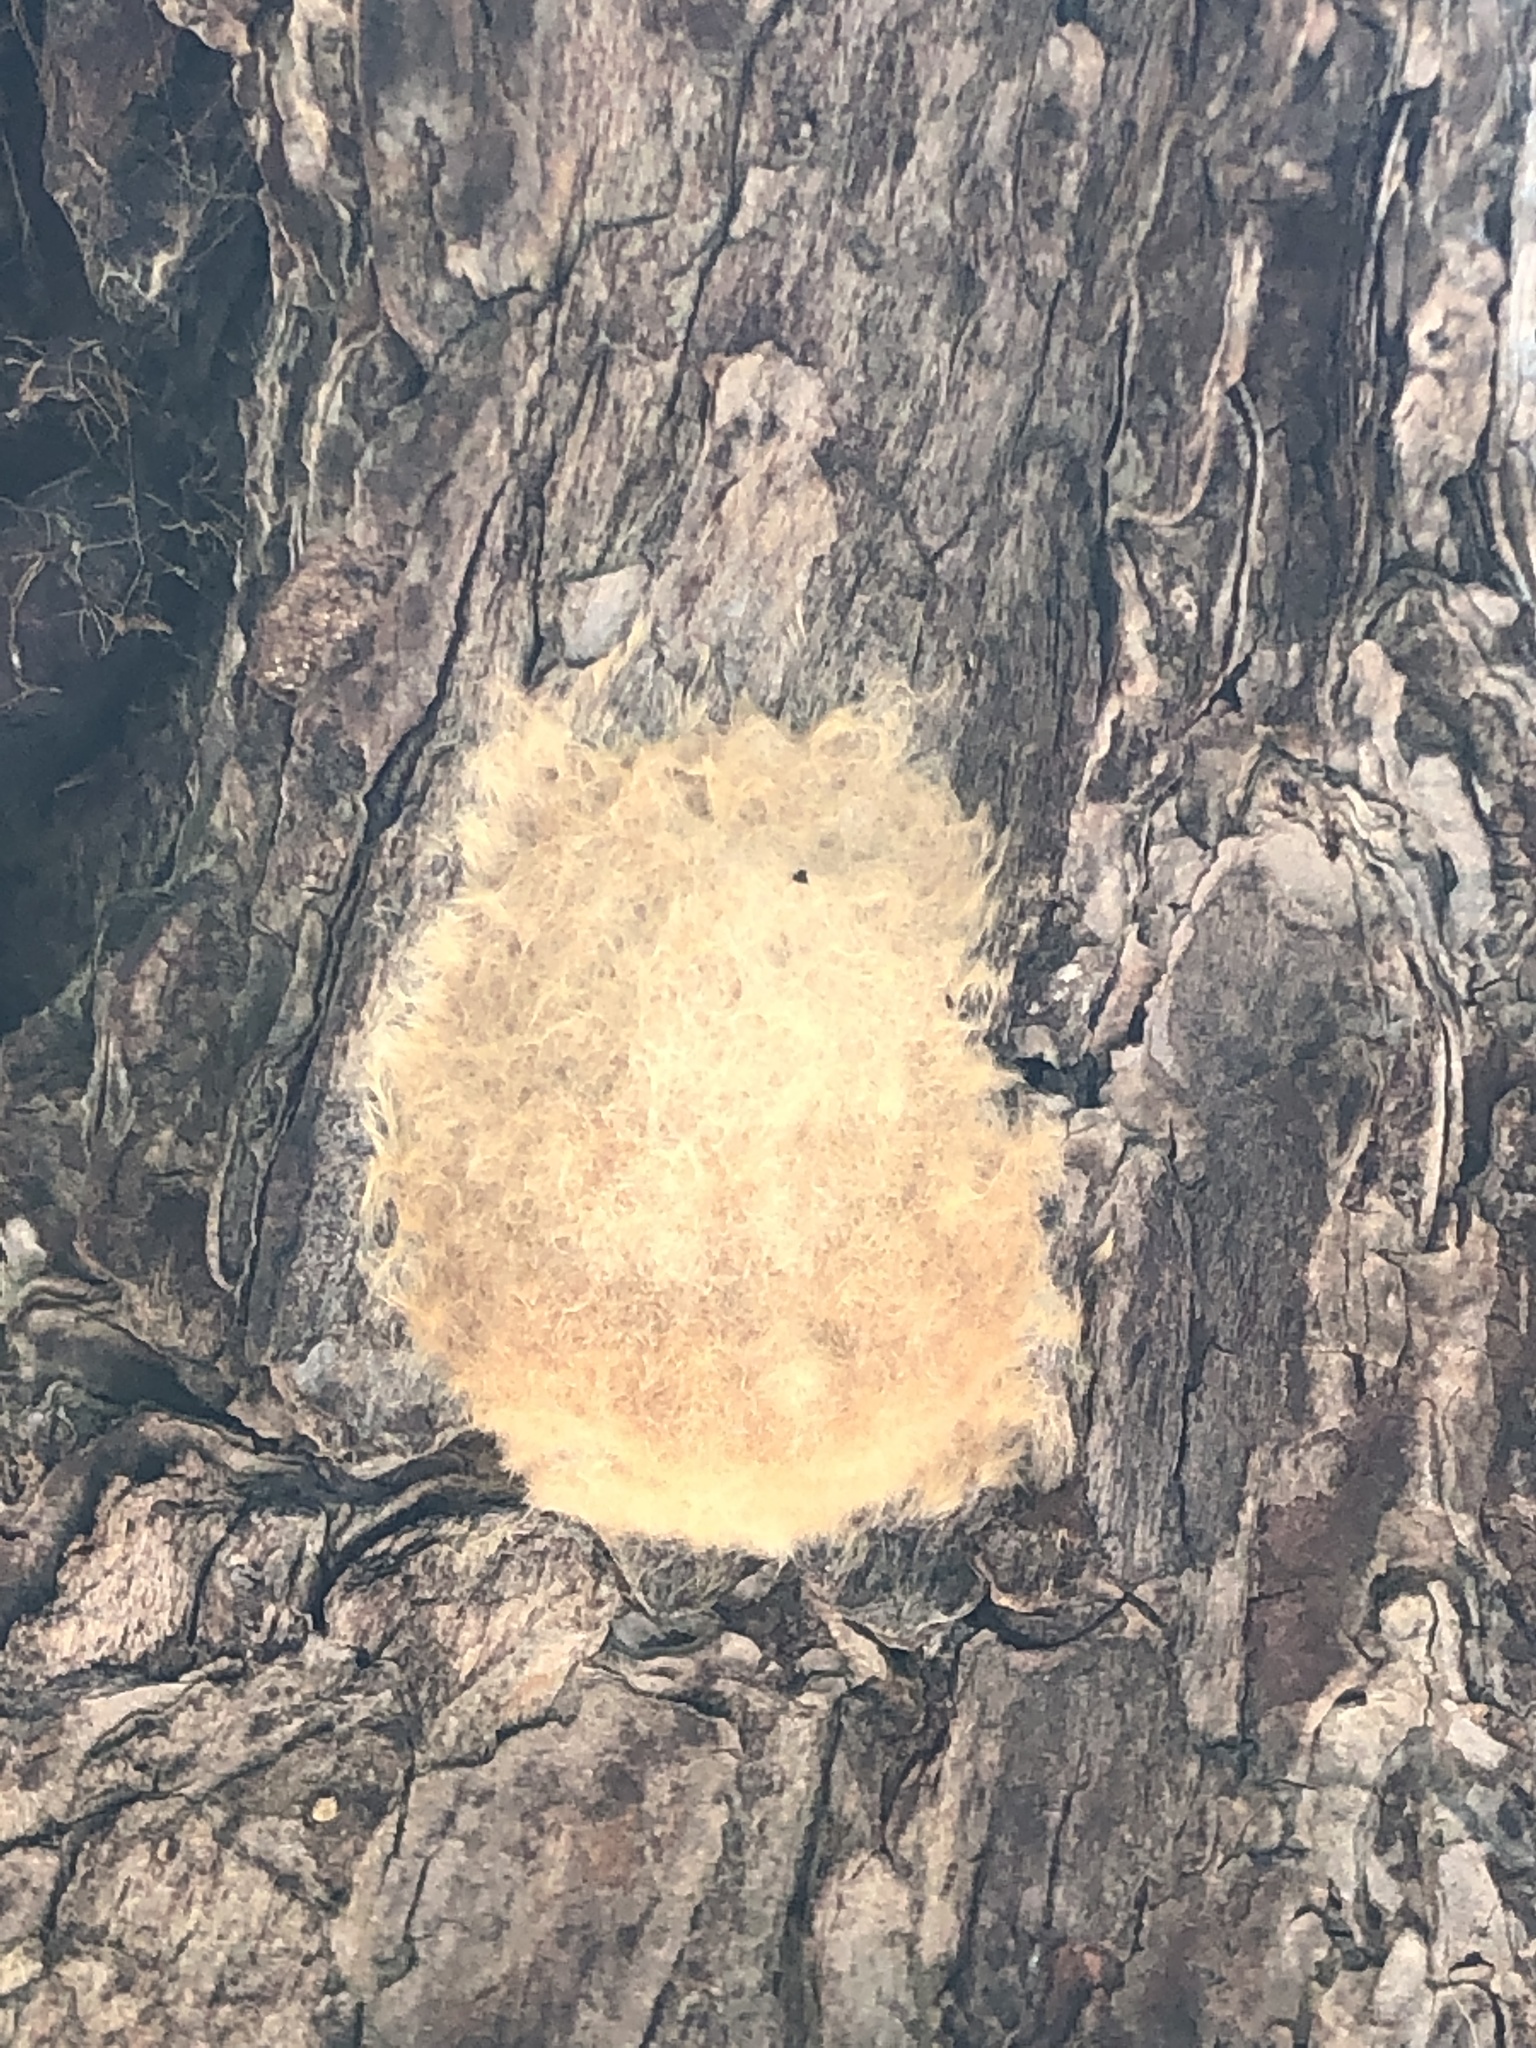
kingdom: Animalia
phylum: Arthropoda
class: Insecta
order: Lepidoptera
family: Erebidae
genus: Lymantria
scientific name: Lymantria dispar
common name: Gypsy moth
